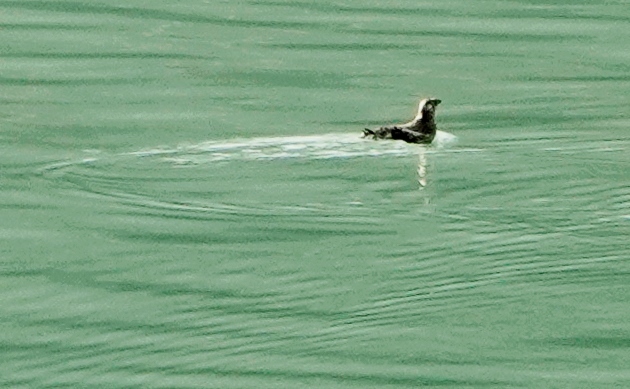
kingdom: Animalia
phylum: Chordata
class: Aves
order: Charadriiformes
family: Alcidae
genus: Brachyramphus
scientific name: Brachyramphus marmoratus
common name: Marbled murrelet
